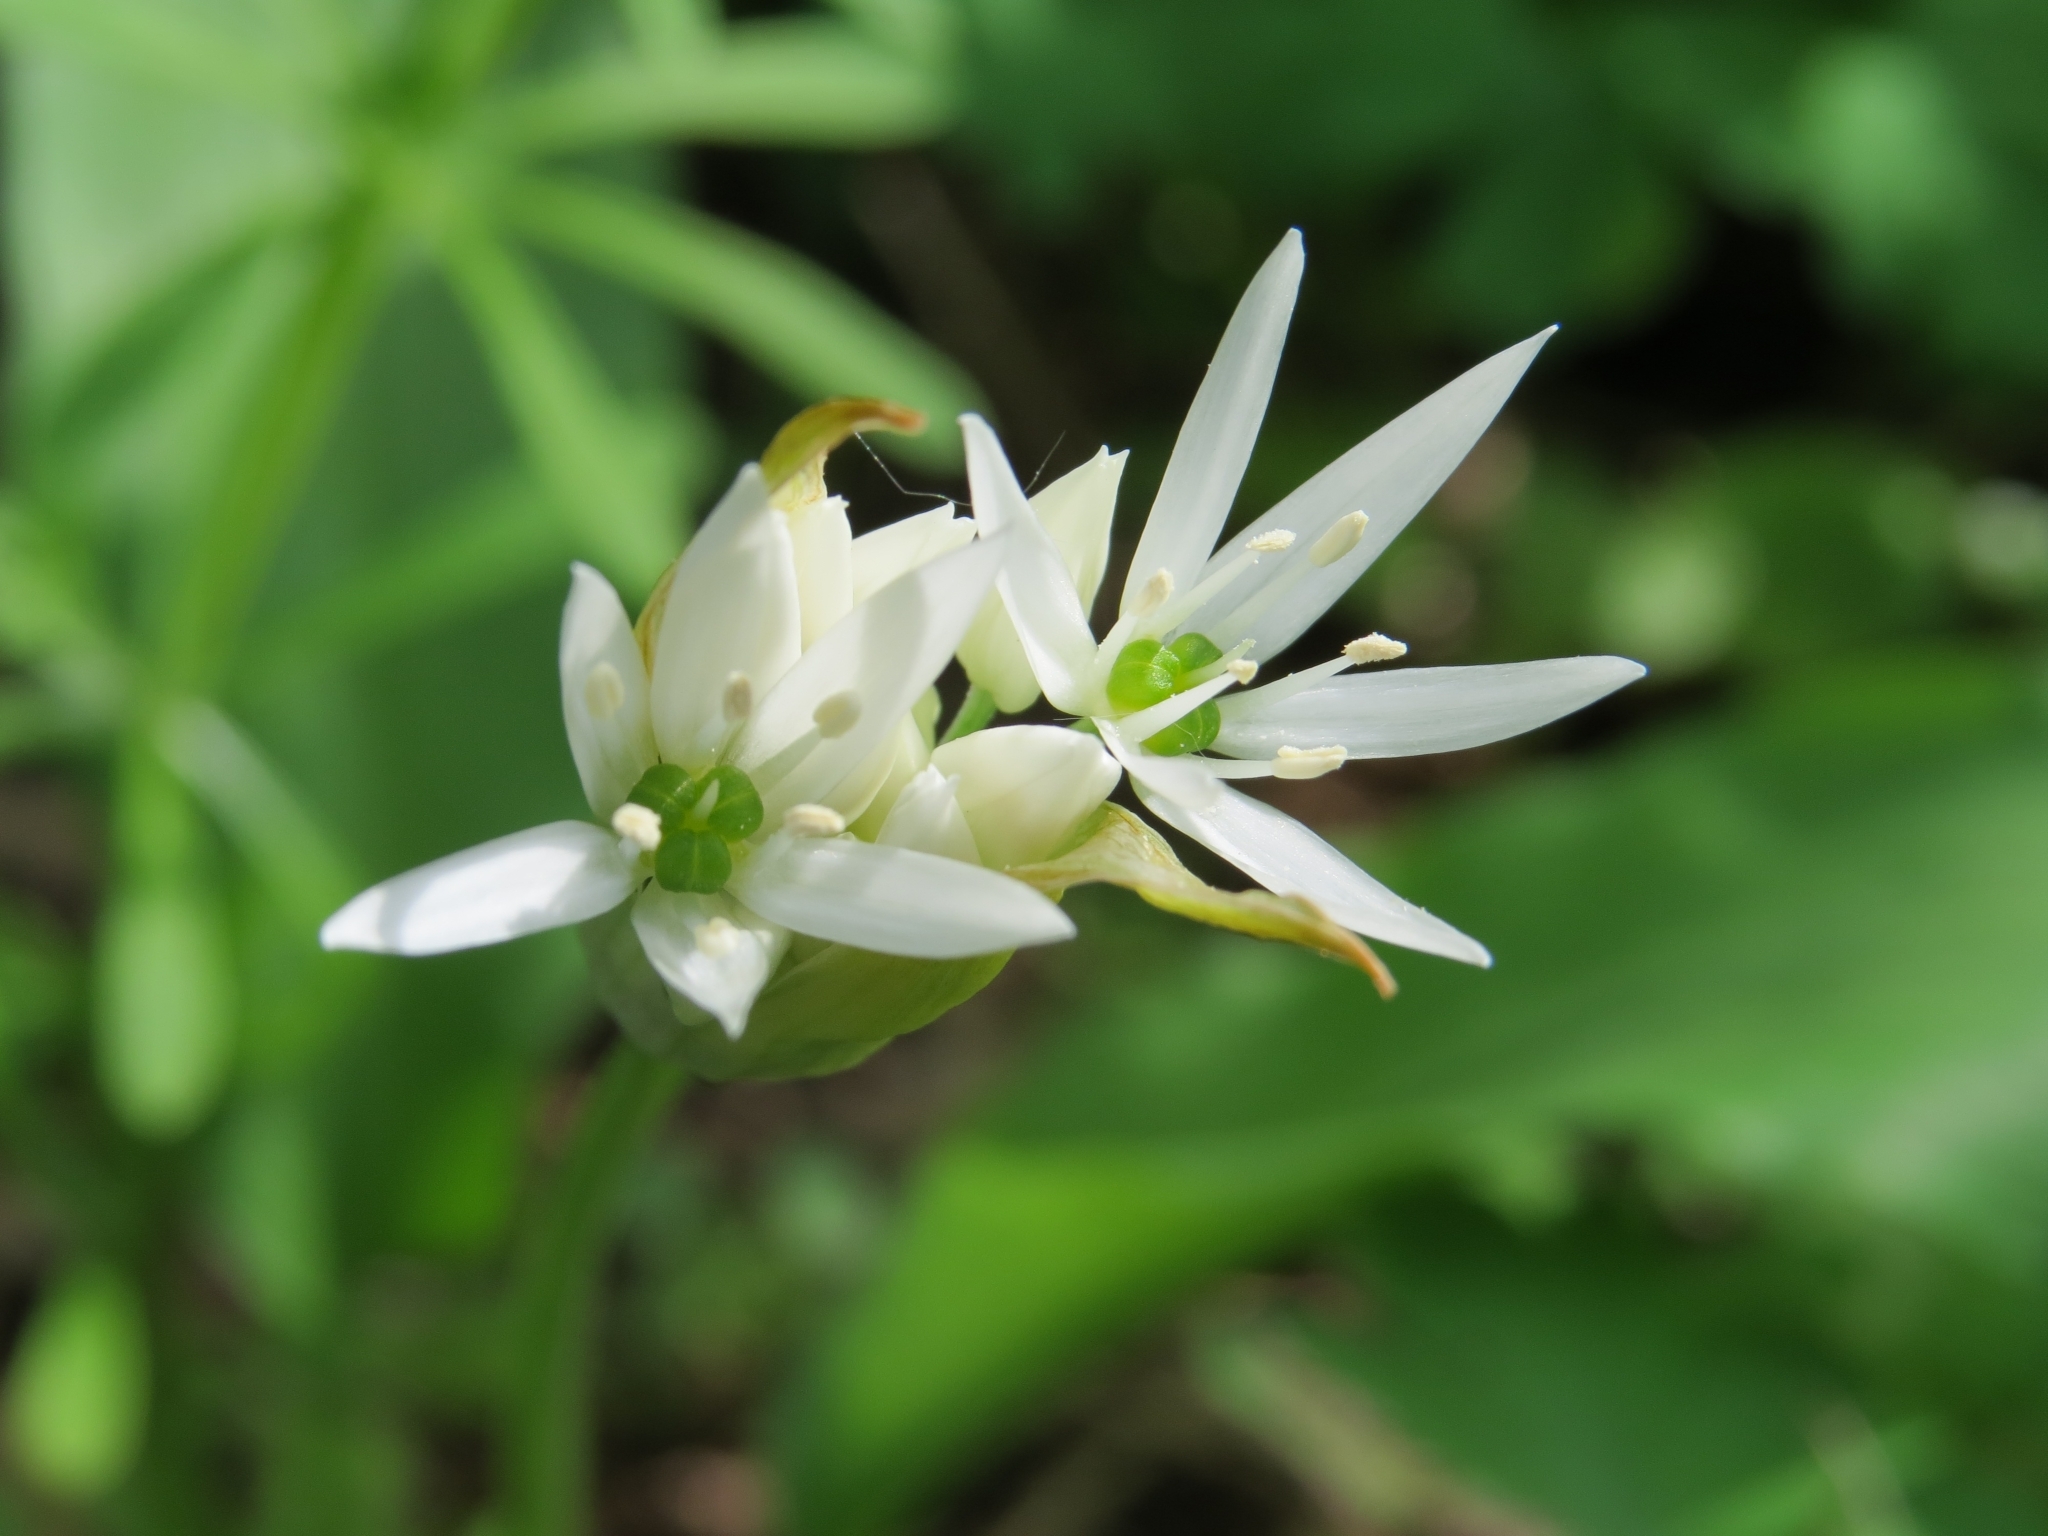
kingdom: Plantae
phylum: Tracheophyta
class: Liliopsida
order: Asparagales
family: Amaryllidaceae
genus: Allium
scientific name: Allium ursinum
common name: Ramsons
